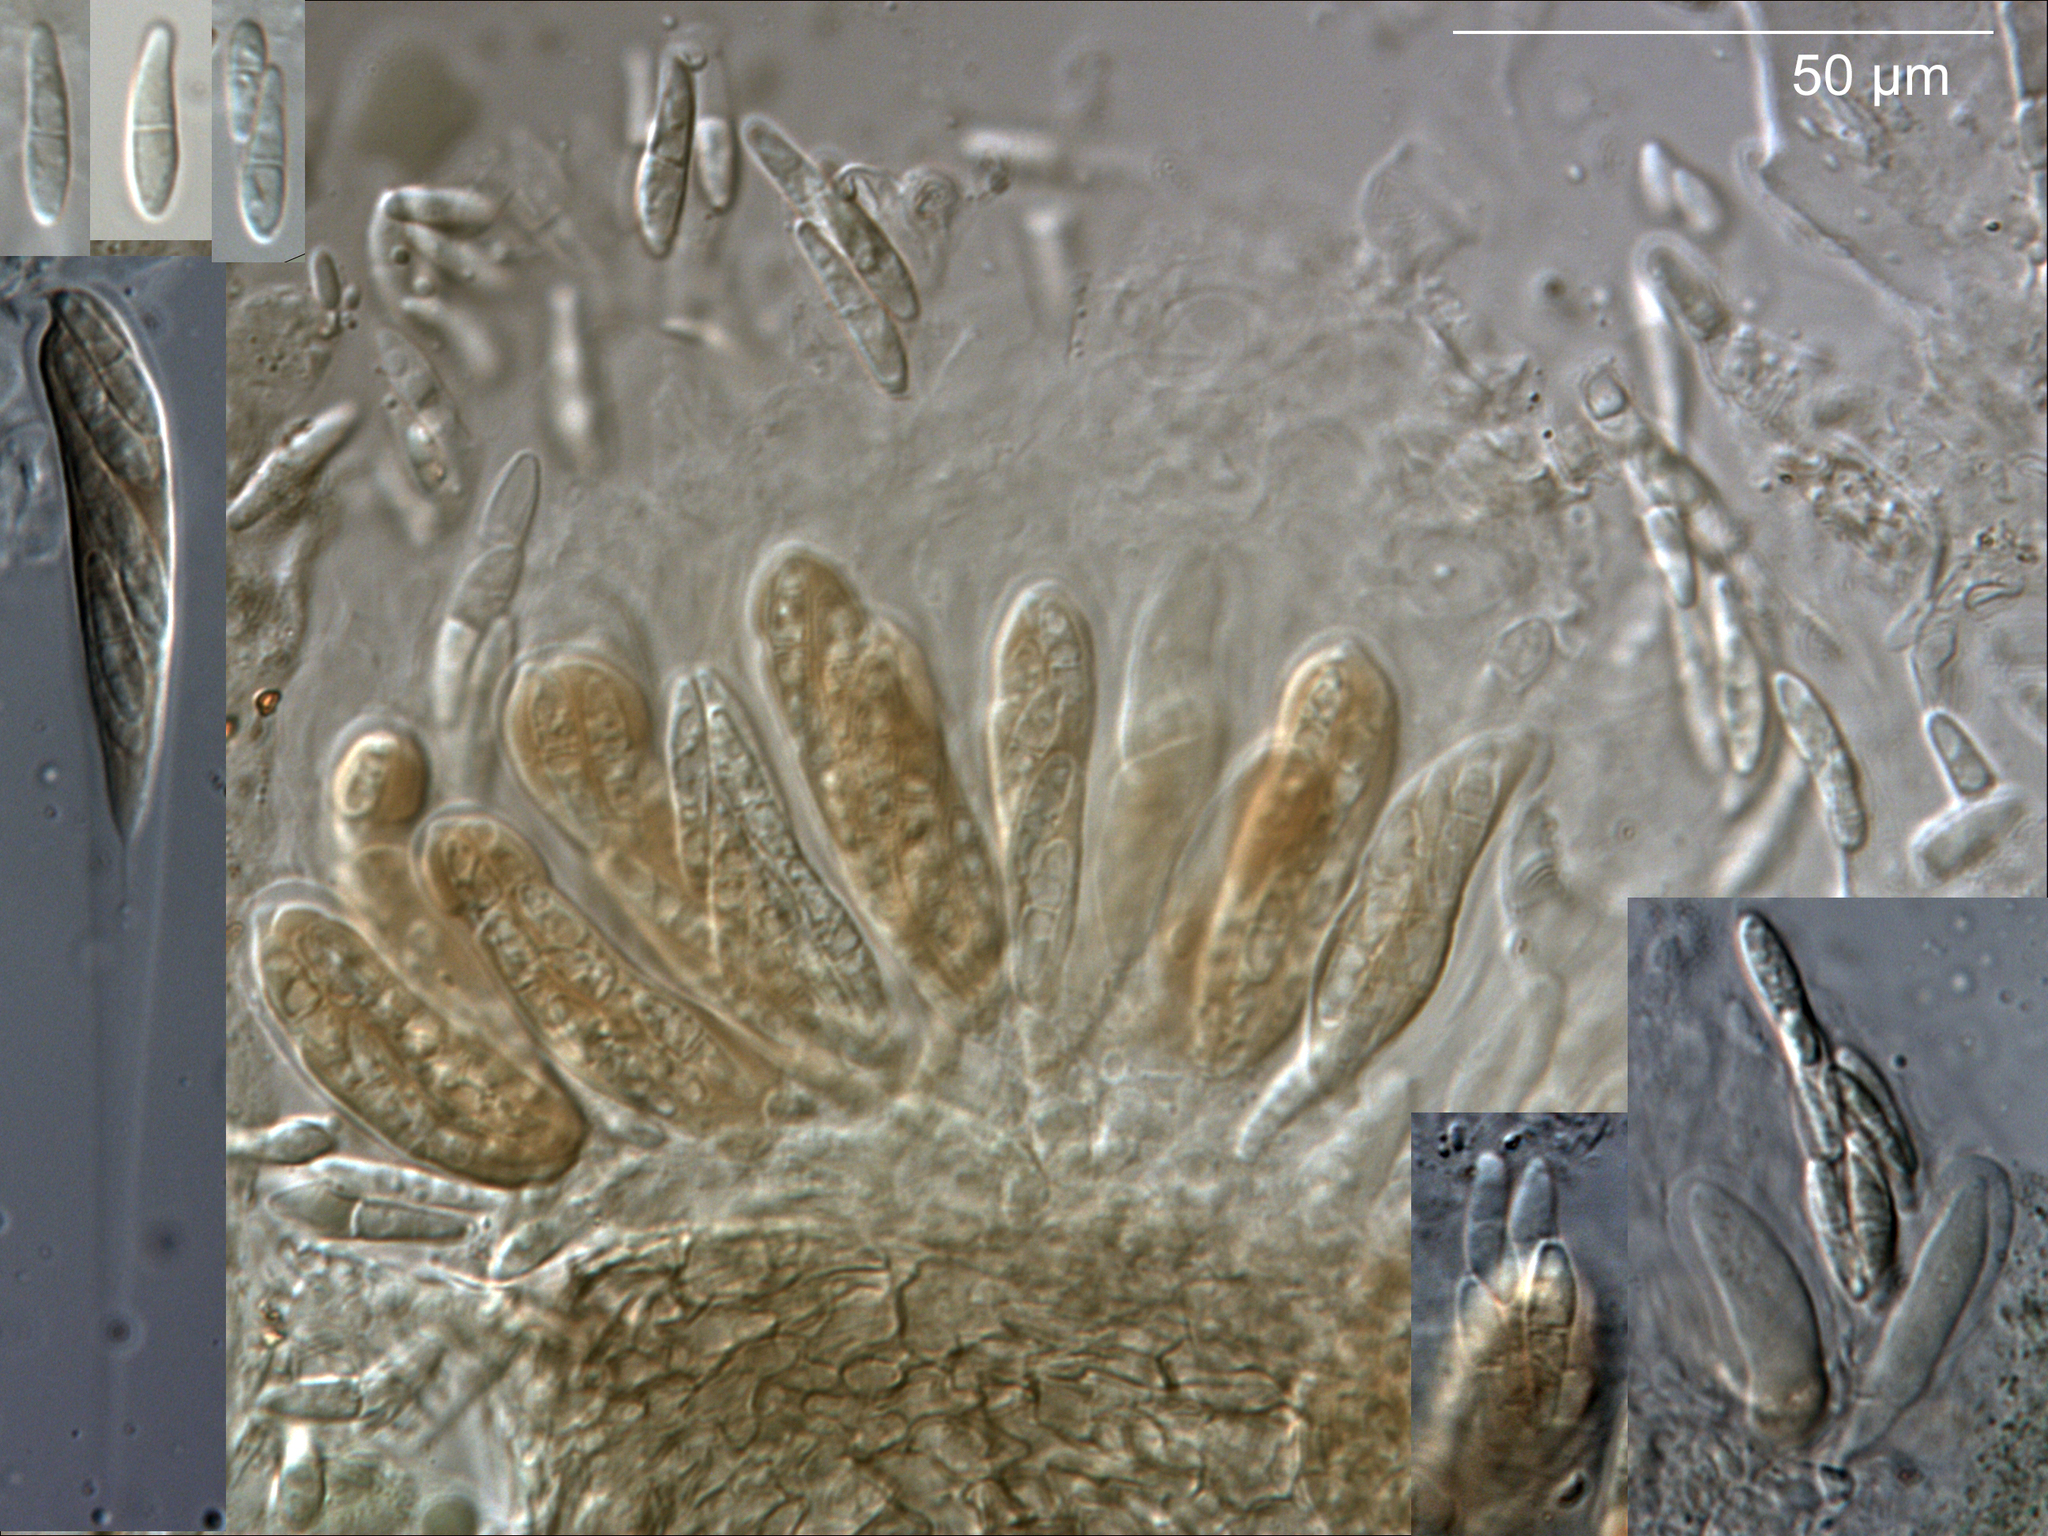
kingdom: Fungi
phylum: Ascomycota
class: Dothideomycetes
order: Mycosphaerellales
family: Mycosphaerellaceae
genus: Mycosphaerella
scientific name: Mycosphaerella densa
